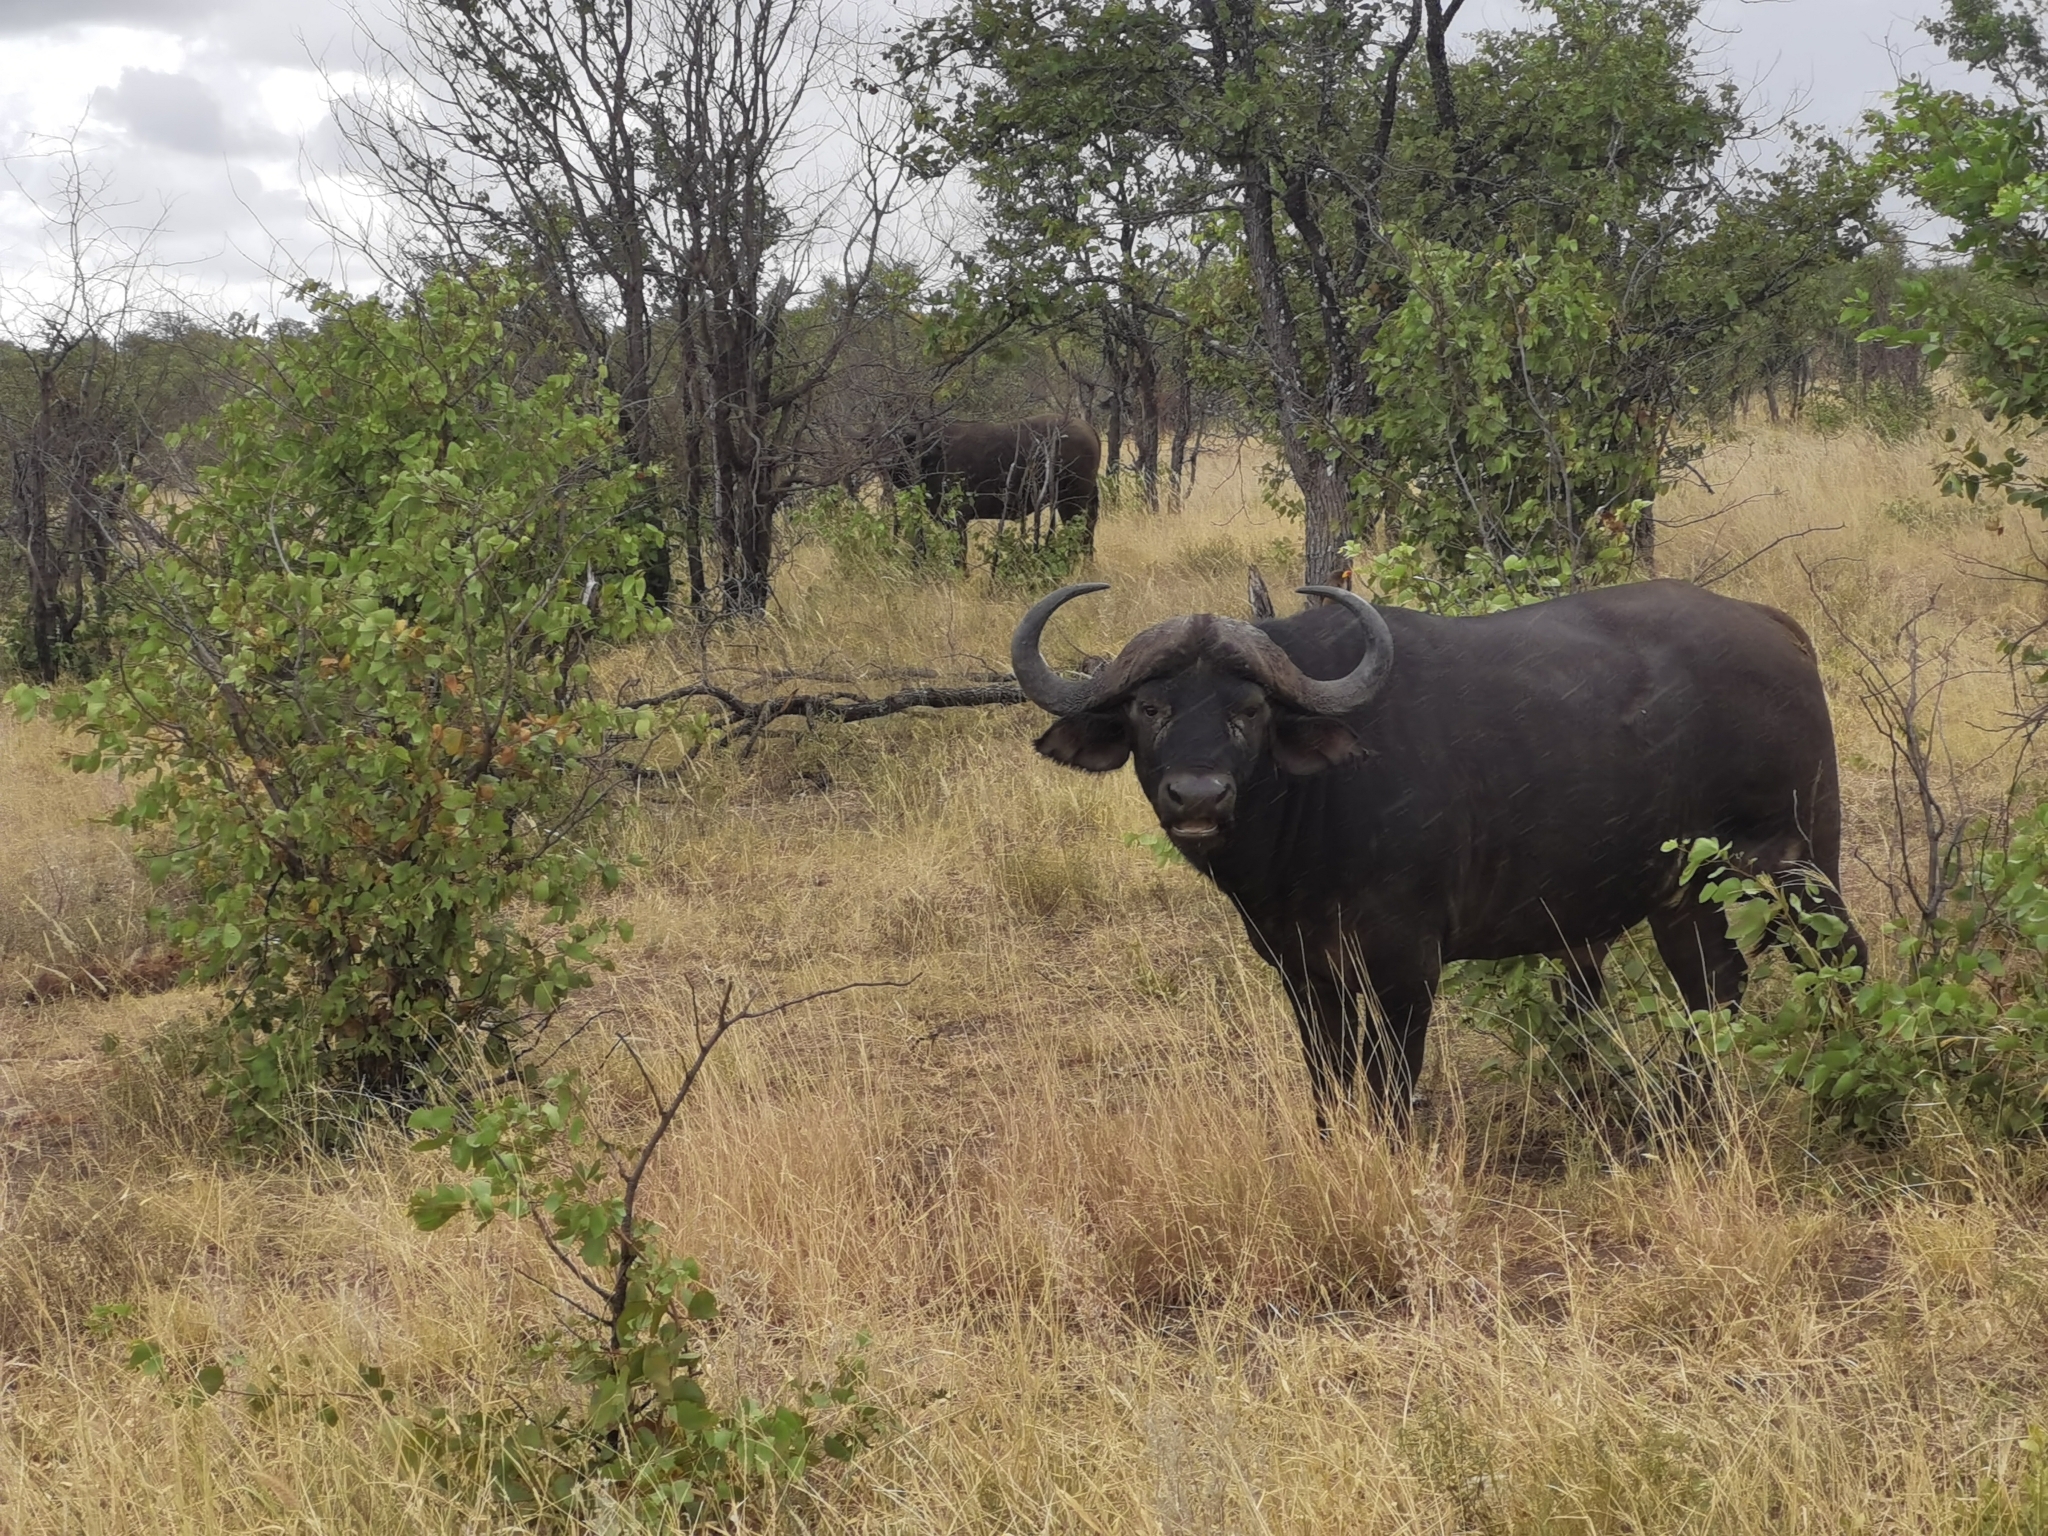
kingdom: Animalia
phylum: Chordata
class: Mammalia
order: Artiodactyla
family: Bovidae
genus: Syncerus
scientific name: Syncerus caffer
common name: African buffalo
